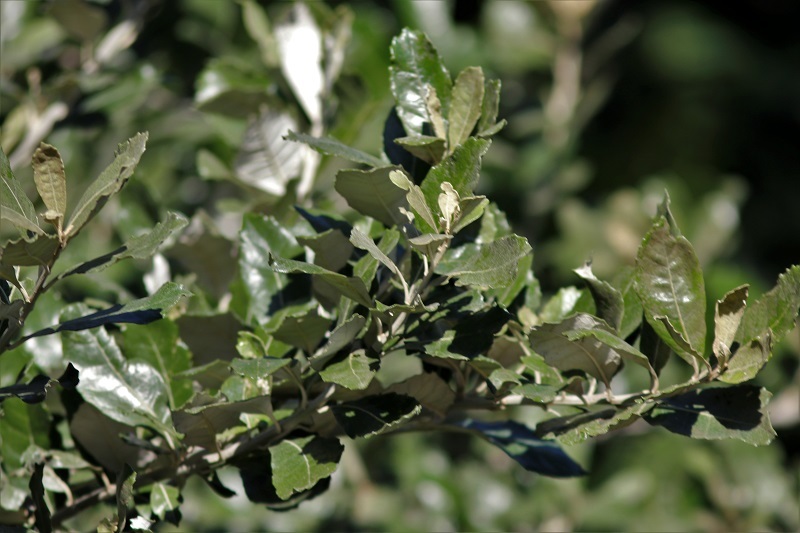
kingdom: Plantae
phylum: Tracheophyta
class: Magnoliopsida
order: Asterales
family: Asteraceae
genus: Brachylaena
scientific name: Brachylaena discolor
